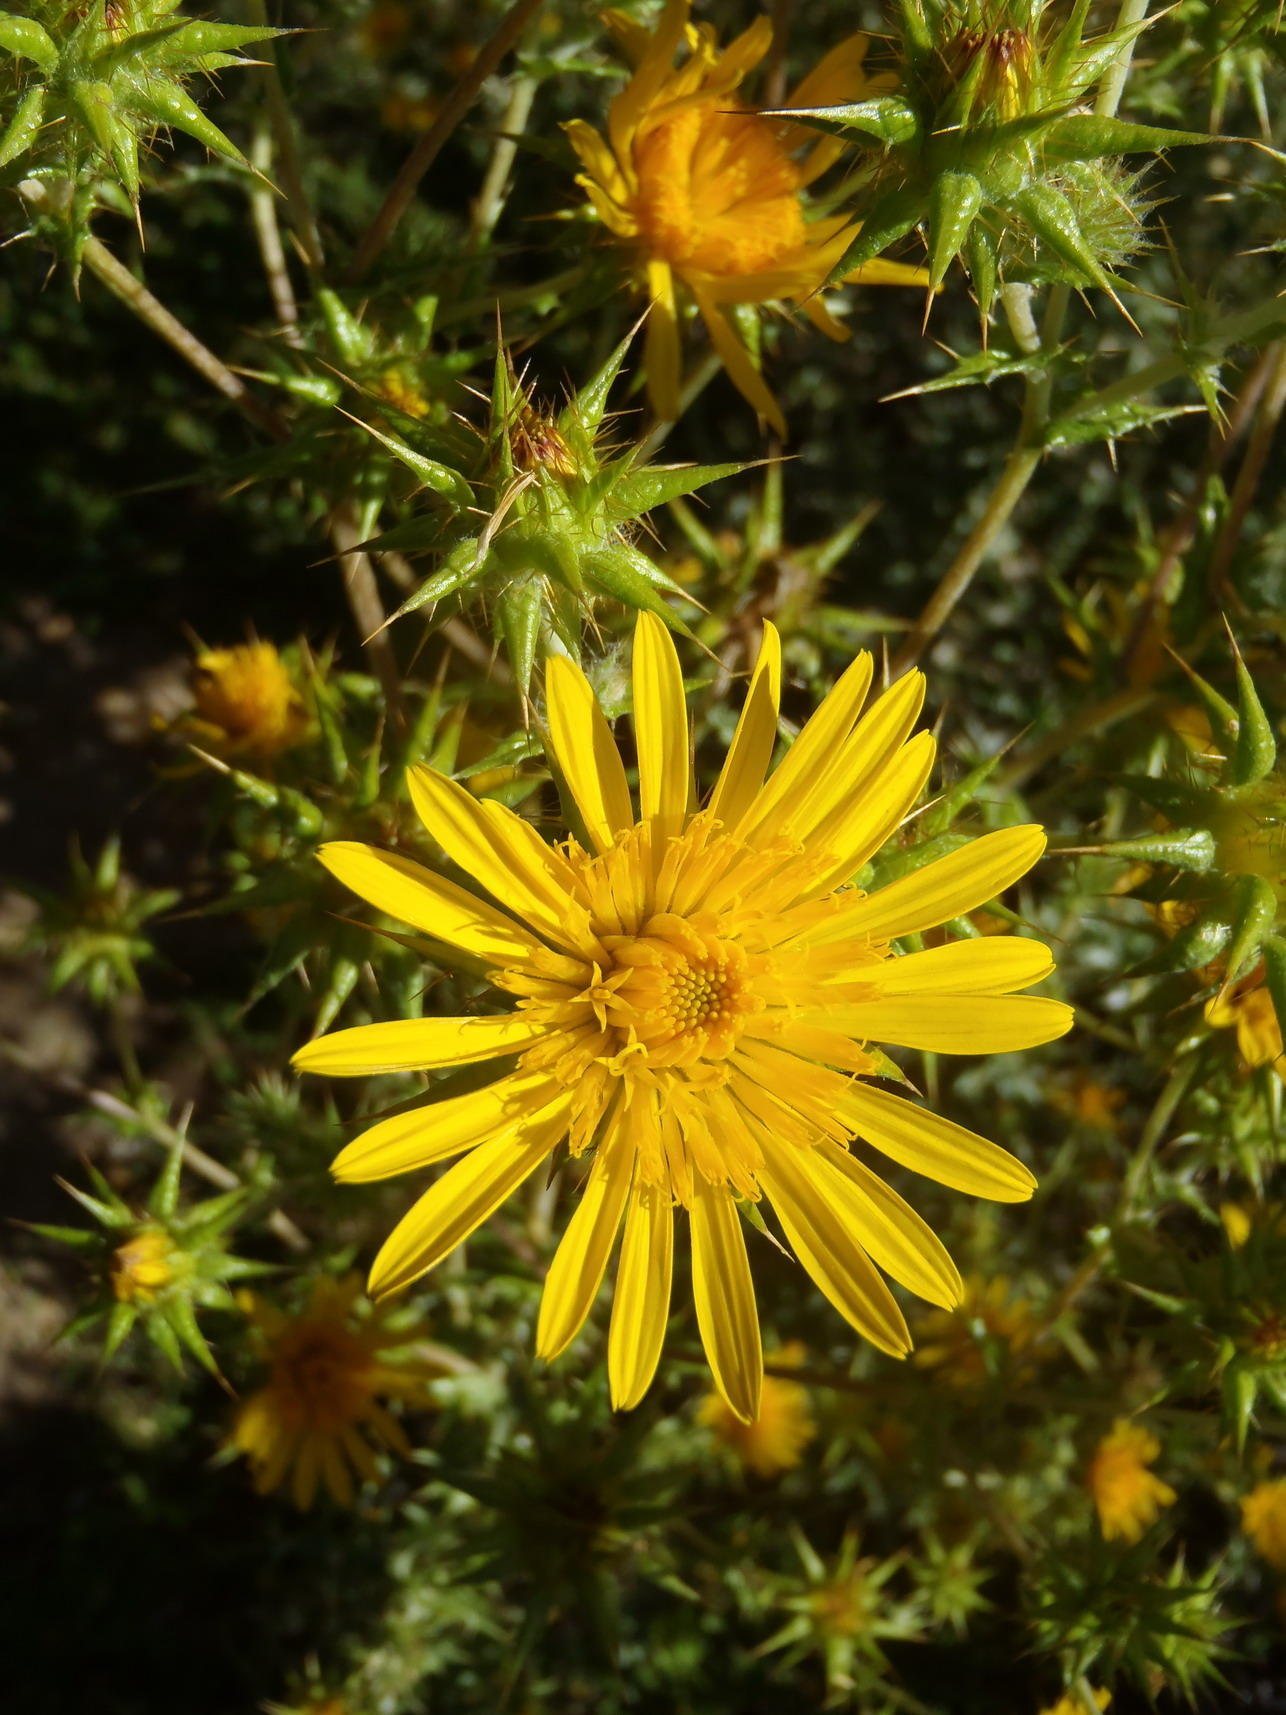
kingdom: Plantae
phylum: Tracheophyta
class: Magnoliopsida
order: Asterales
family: Asteraceae
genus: Berkheya
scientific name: Berkheya heterophylla
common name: Prickly gousblom
